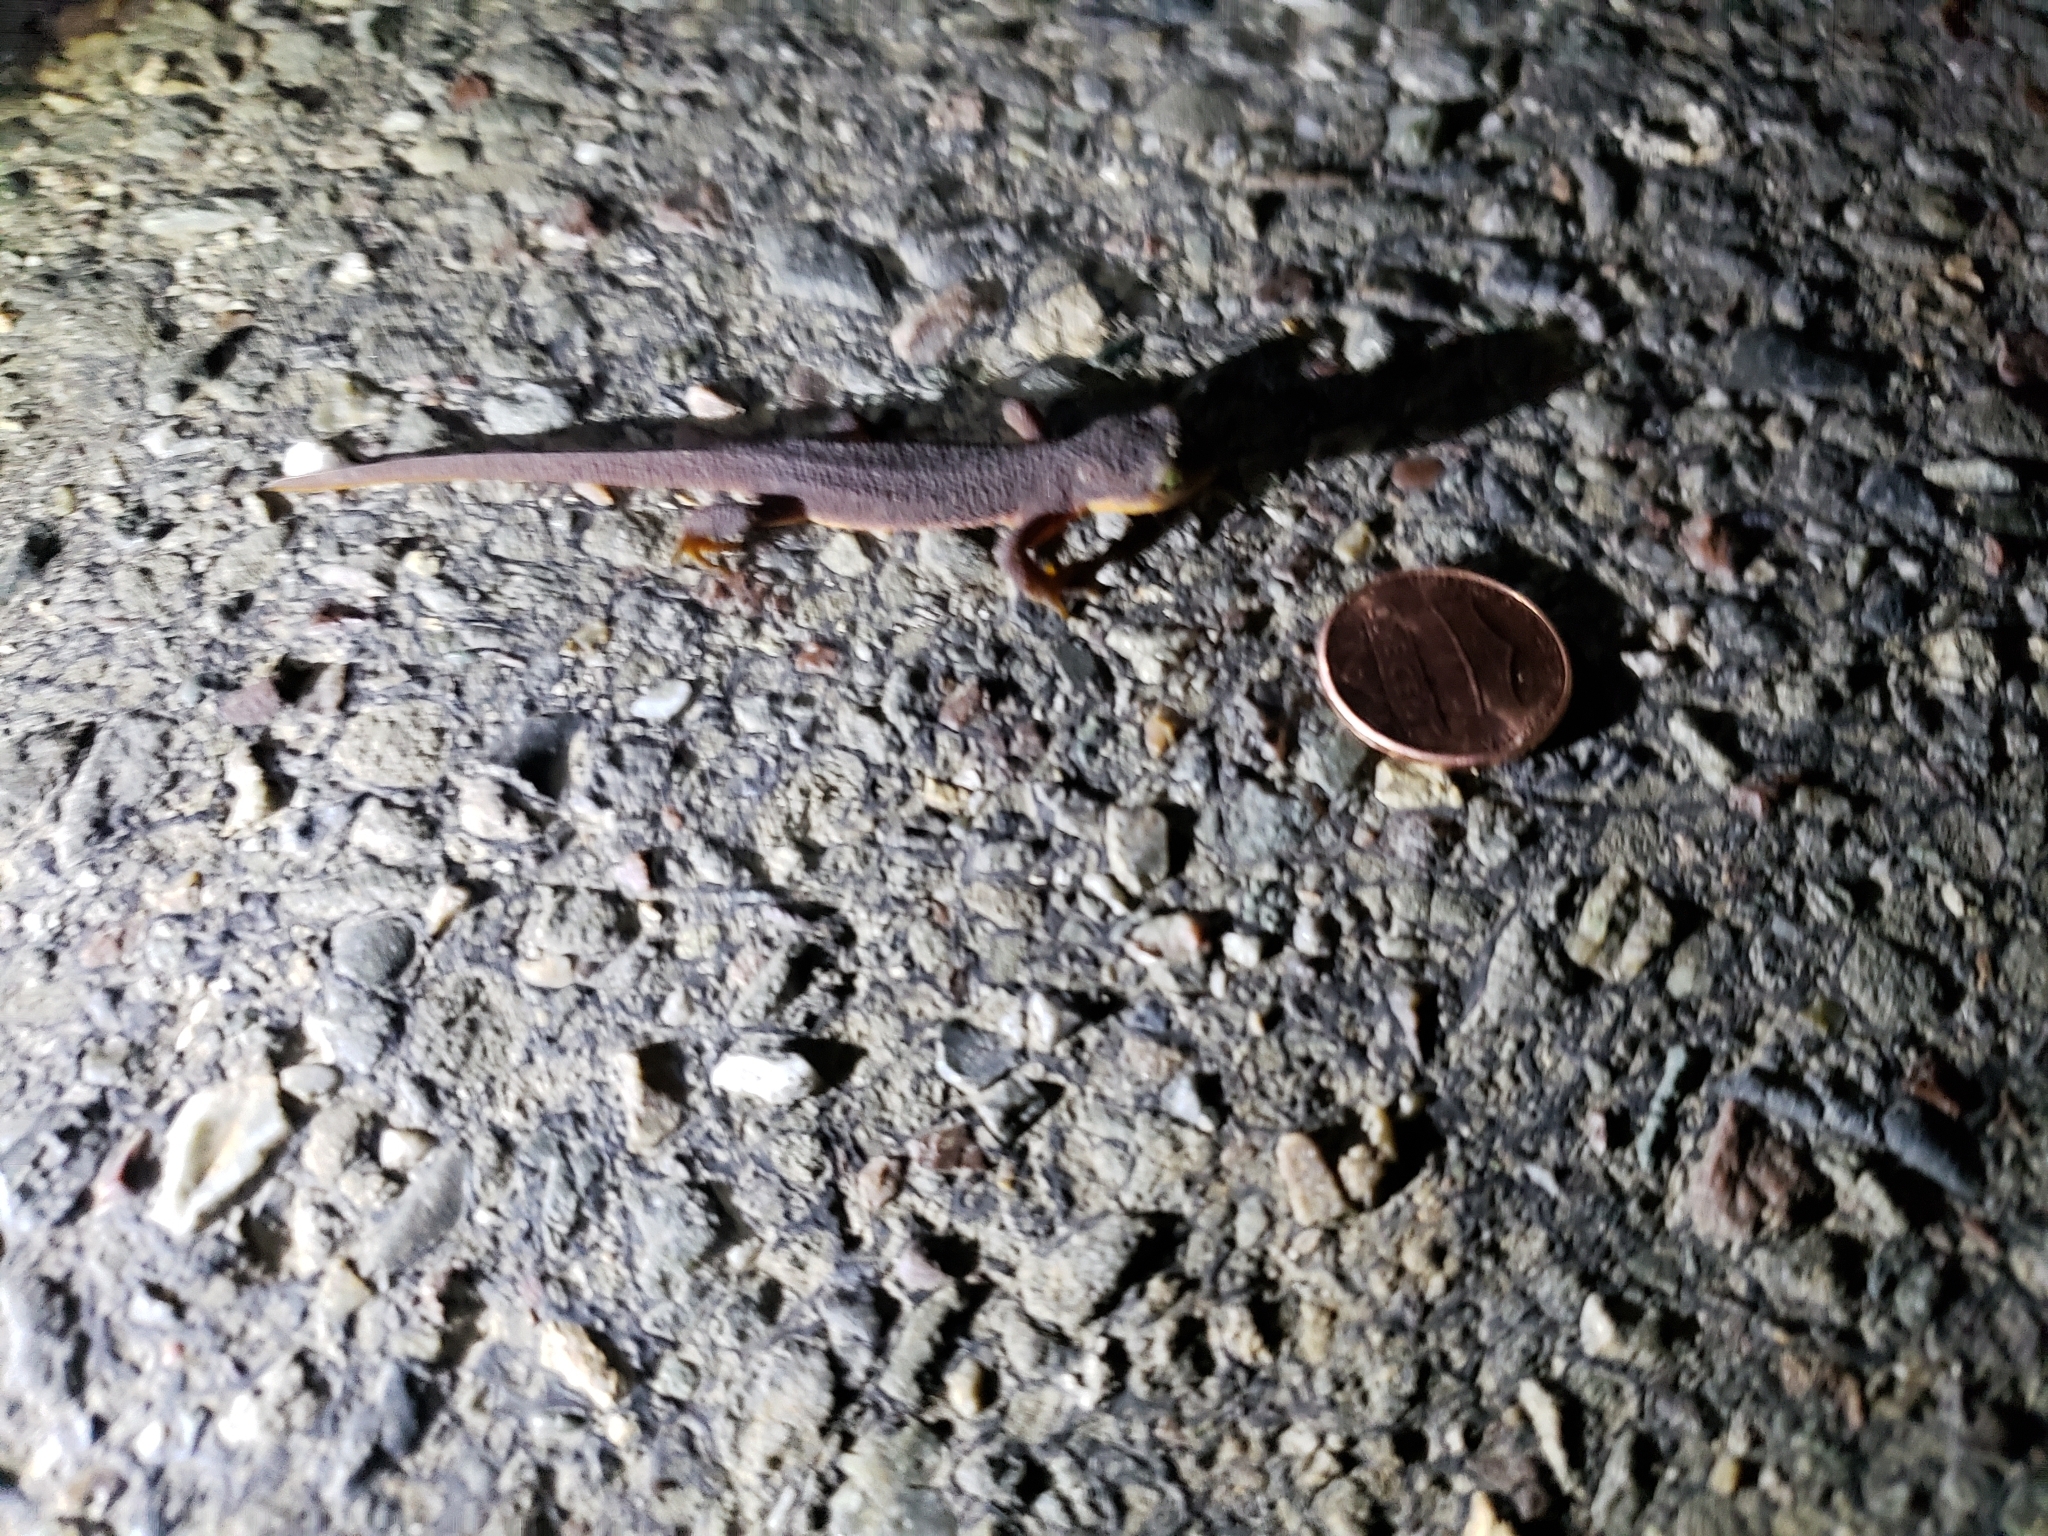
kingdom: Animalia
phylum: Chordata
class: Amphibia
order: Caudata
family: Salamandridae
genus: Taricha
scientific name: Taricha torosa
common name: California newt
